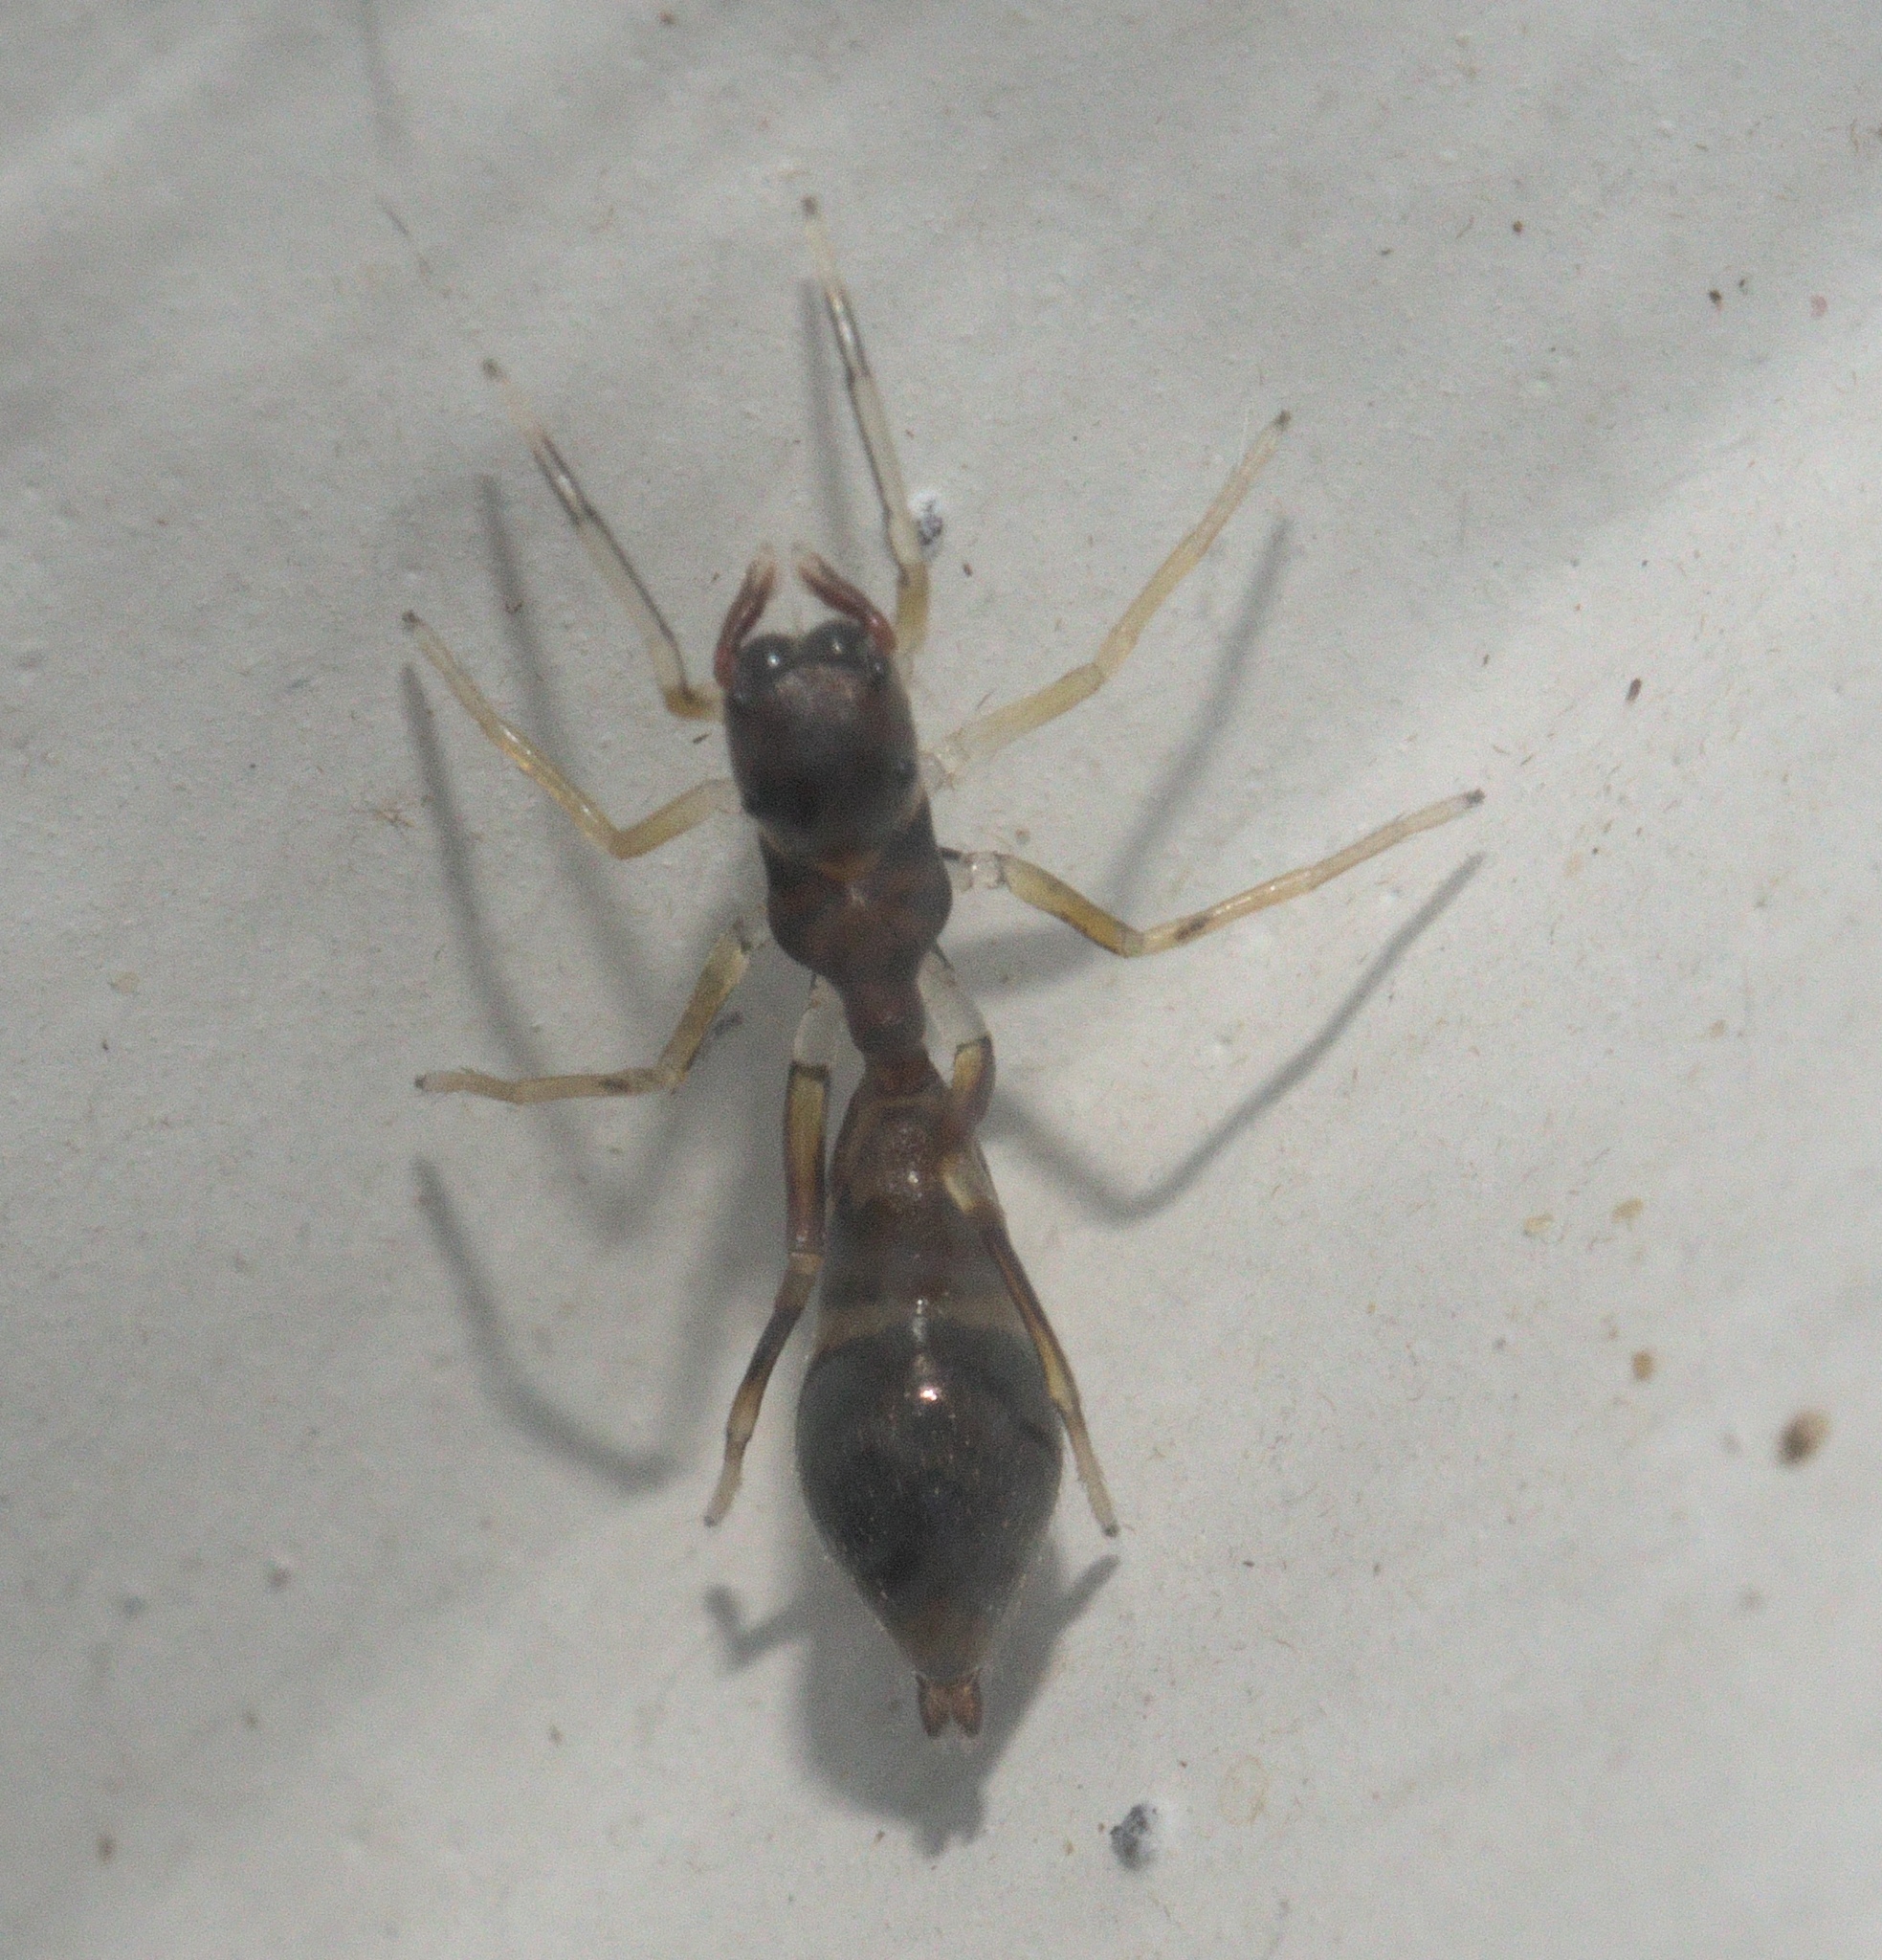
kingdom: Animalia
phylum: Arthropoda
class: Arachnida
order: Araneae
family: Salticidae
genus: Synemosyna
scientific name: Synemosyna formica
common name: Slender ant-mimic jumping spider
